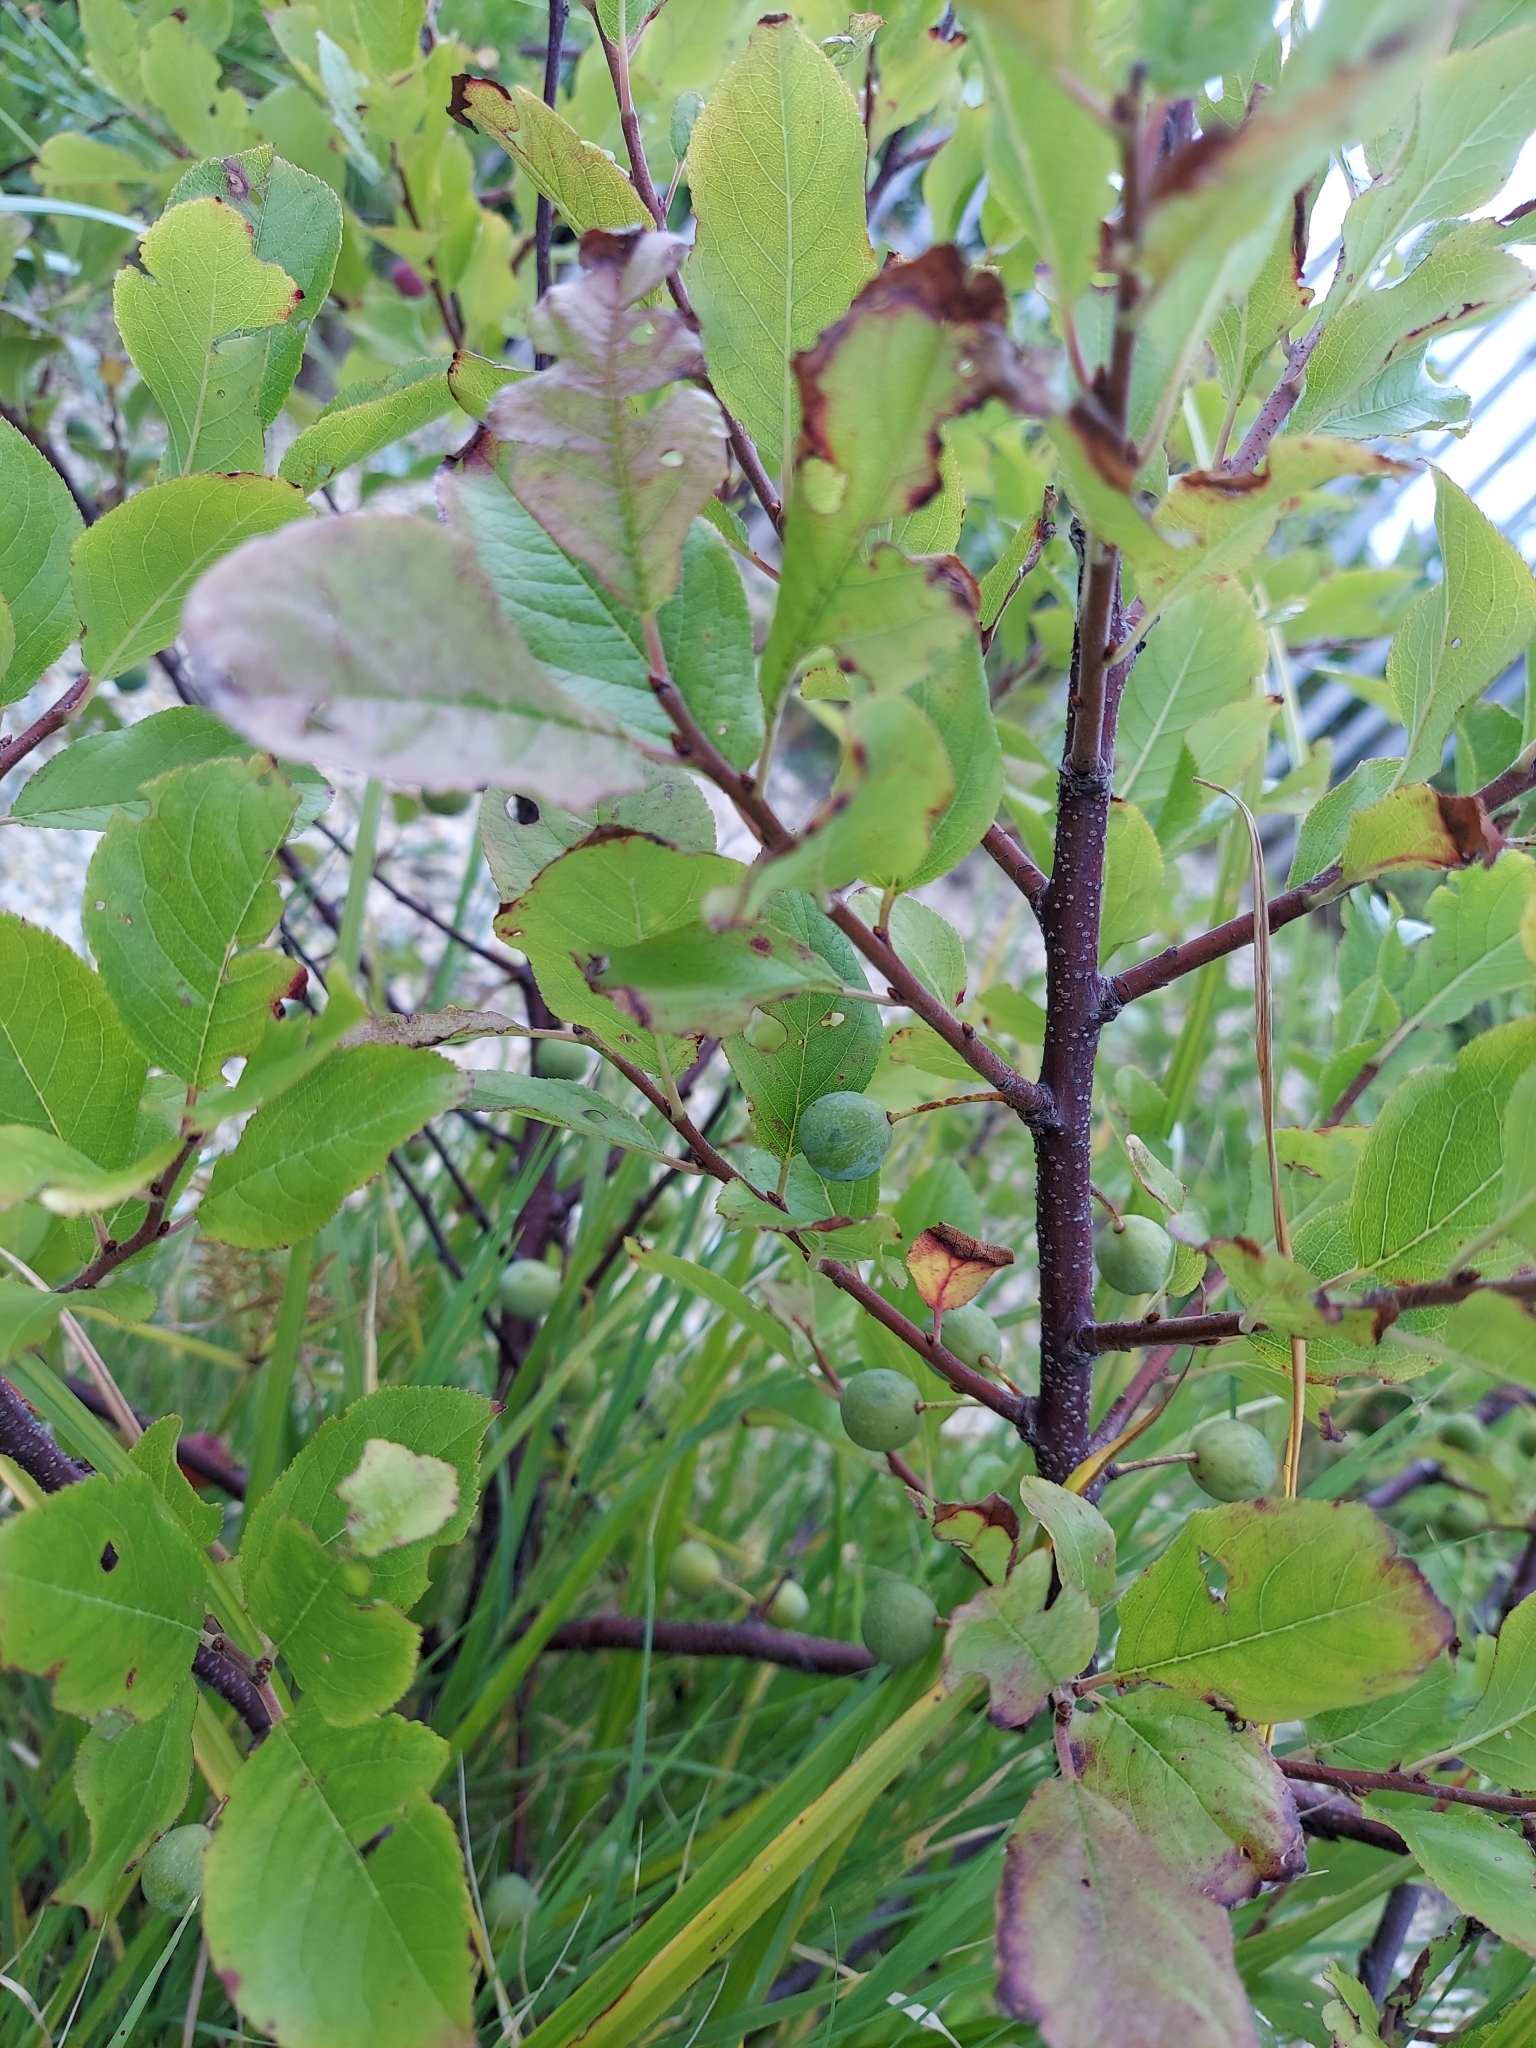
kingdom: Plantae
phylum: Tracheophyta
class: Magnoliopsida
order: Rosales
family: Rosaceae
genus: Prunus
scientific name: Prunus maritima
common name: Beach plum
